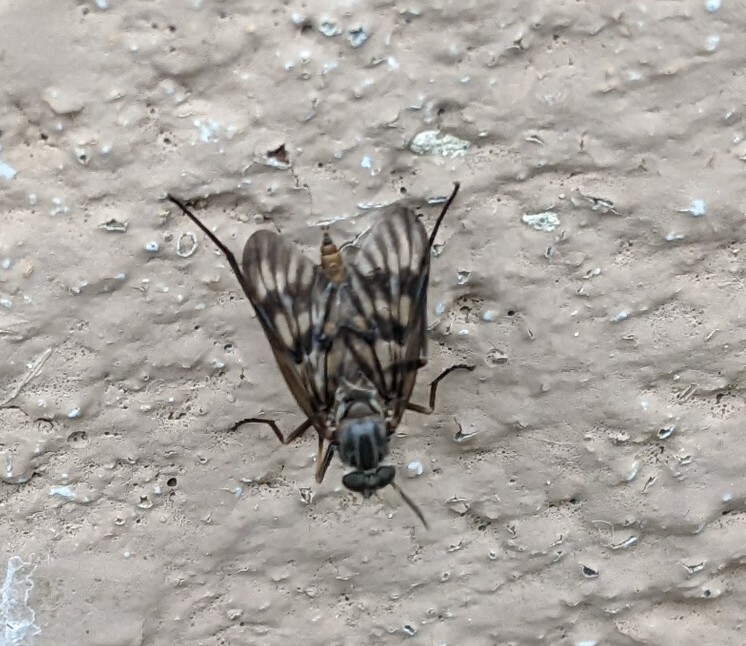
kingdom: Animalia
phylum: Arthropoda
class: Insecta
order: Diptera
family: Rhagionidae
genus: Rhagio
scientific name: Rhagio mystaceus
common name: Common snipe fly
